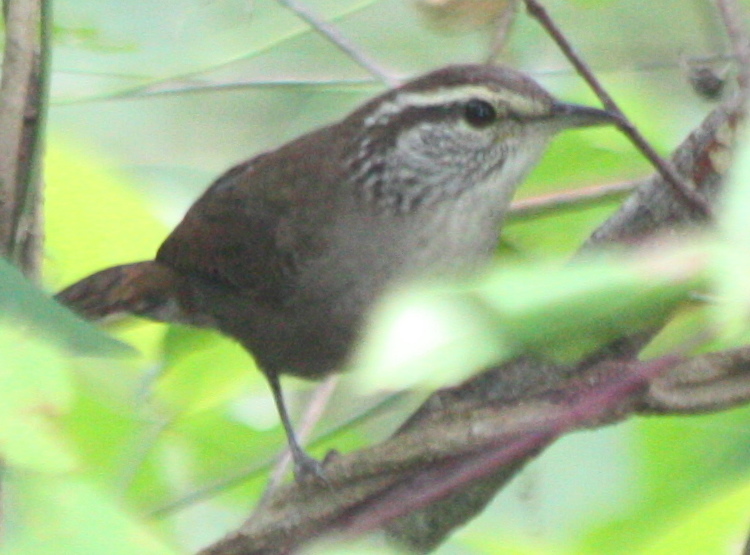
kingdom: Animalia
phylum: Chordata
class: Aves
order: Passeriformes
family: Troglodytidae
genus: Thryophilus
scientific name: Thryophilus sinaloa
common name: Sinaloa wren
